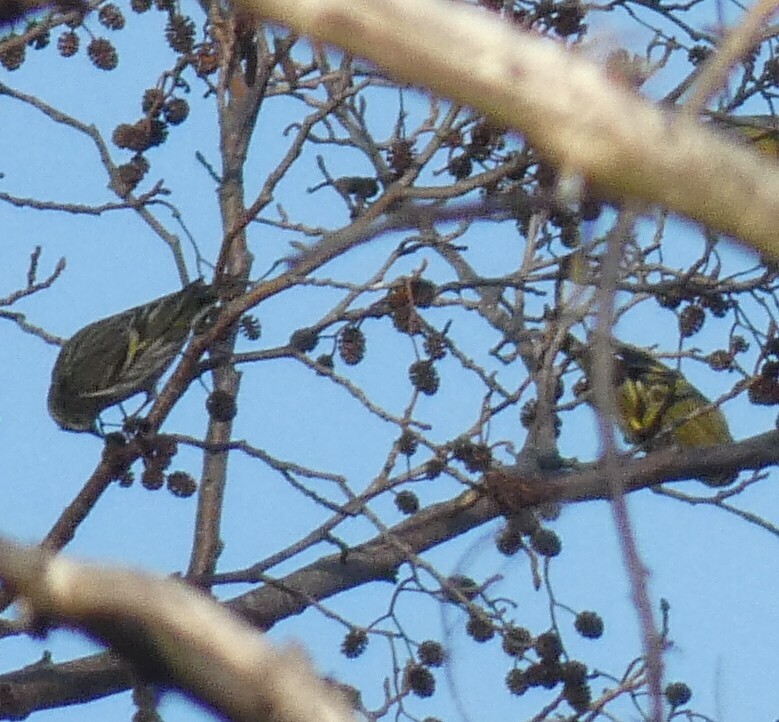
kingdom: Animalia
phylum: Chordata
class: Aves
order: Passeriformes
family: Fringillidae
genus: Spinus
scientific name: Spinus spinus
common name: Eurasian siskin
